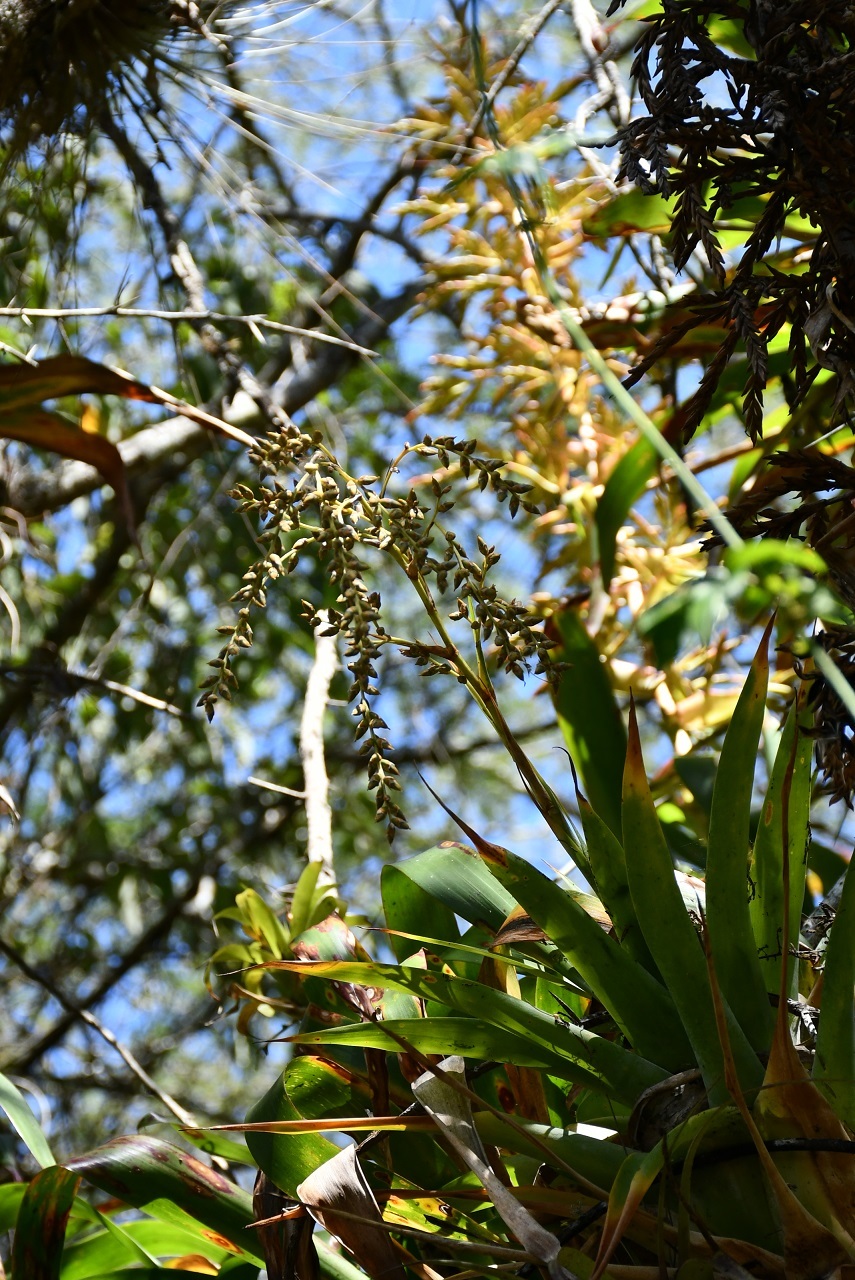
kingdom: Plantae
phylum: Tracheophyta
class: Liliopsida
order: Poales
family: Bromeliaceae
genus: Catopsis
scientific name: Catopsis paniculata
